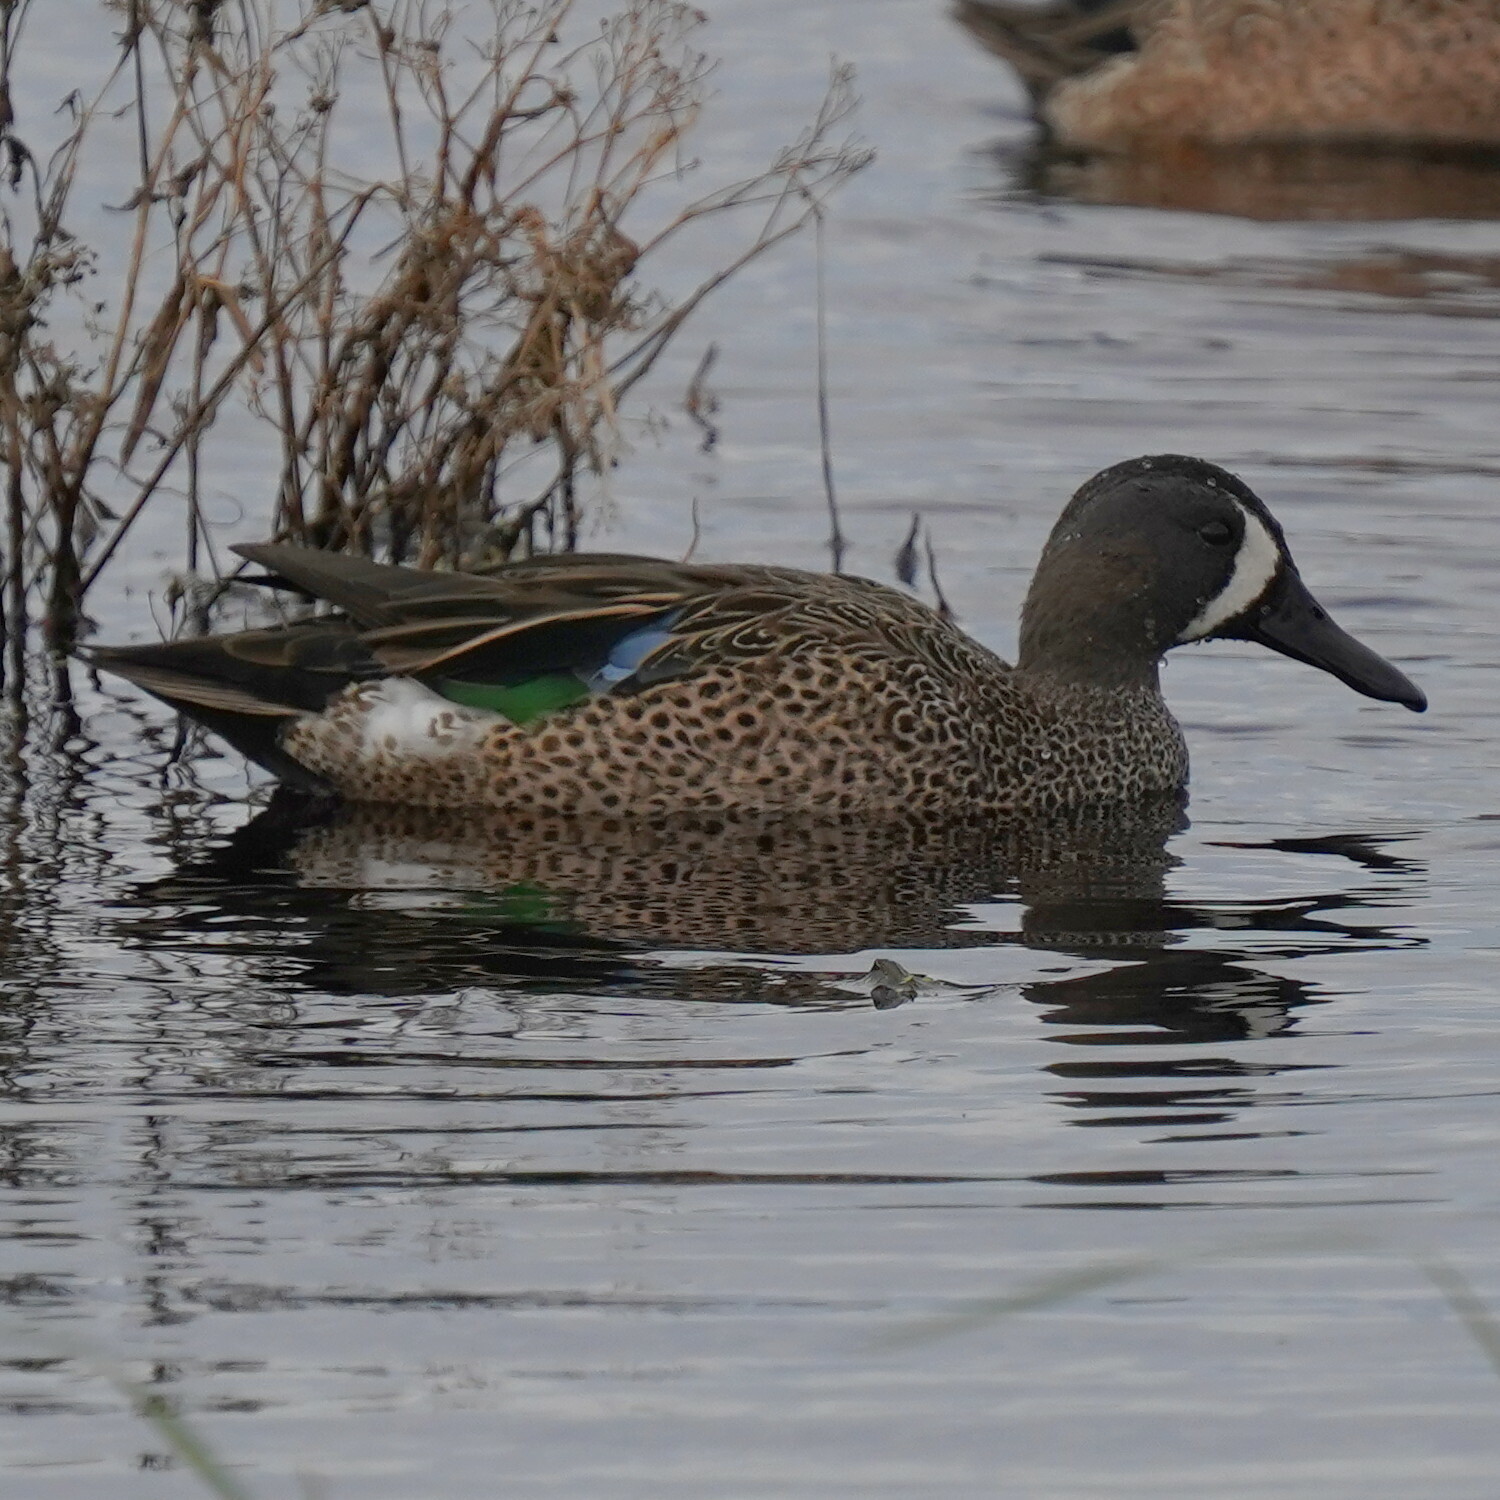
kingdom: Animalia
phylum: Chordata
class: Aves
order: Anseriformes
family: Anatidae
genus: Spatula
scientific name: Spatula discors
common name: Blue-winged teal
